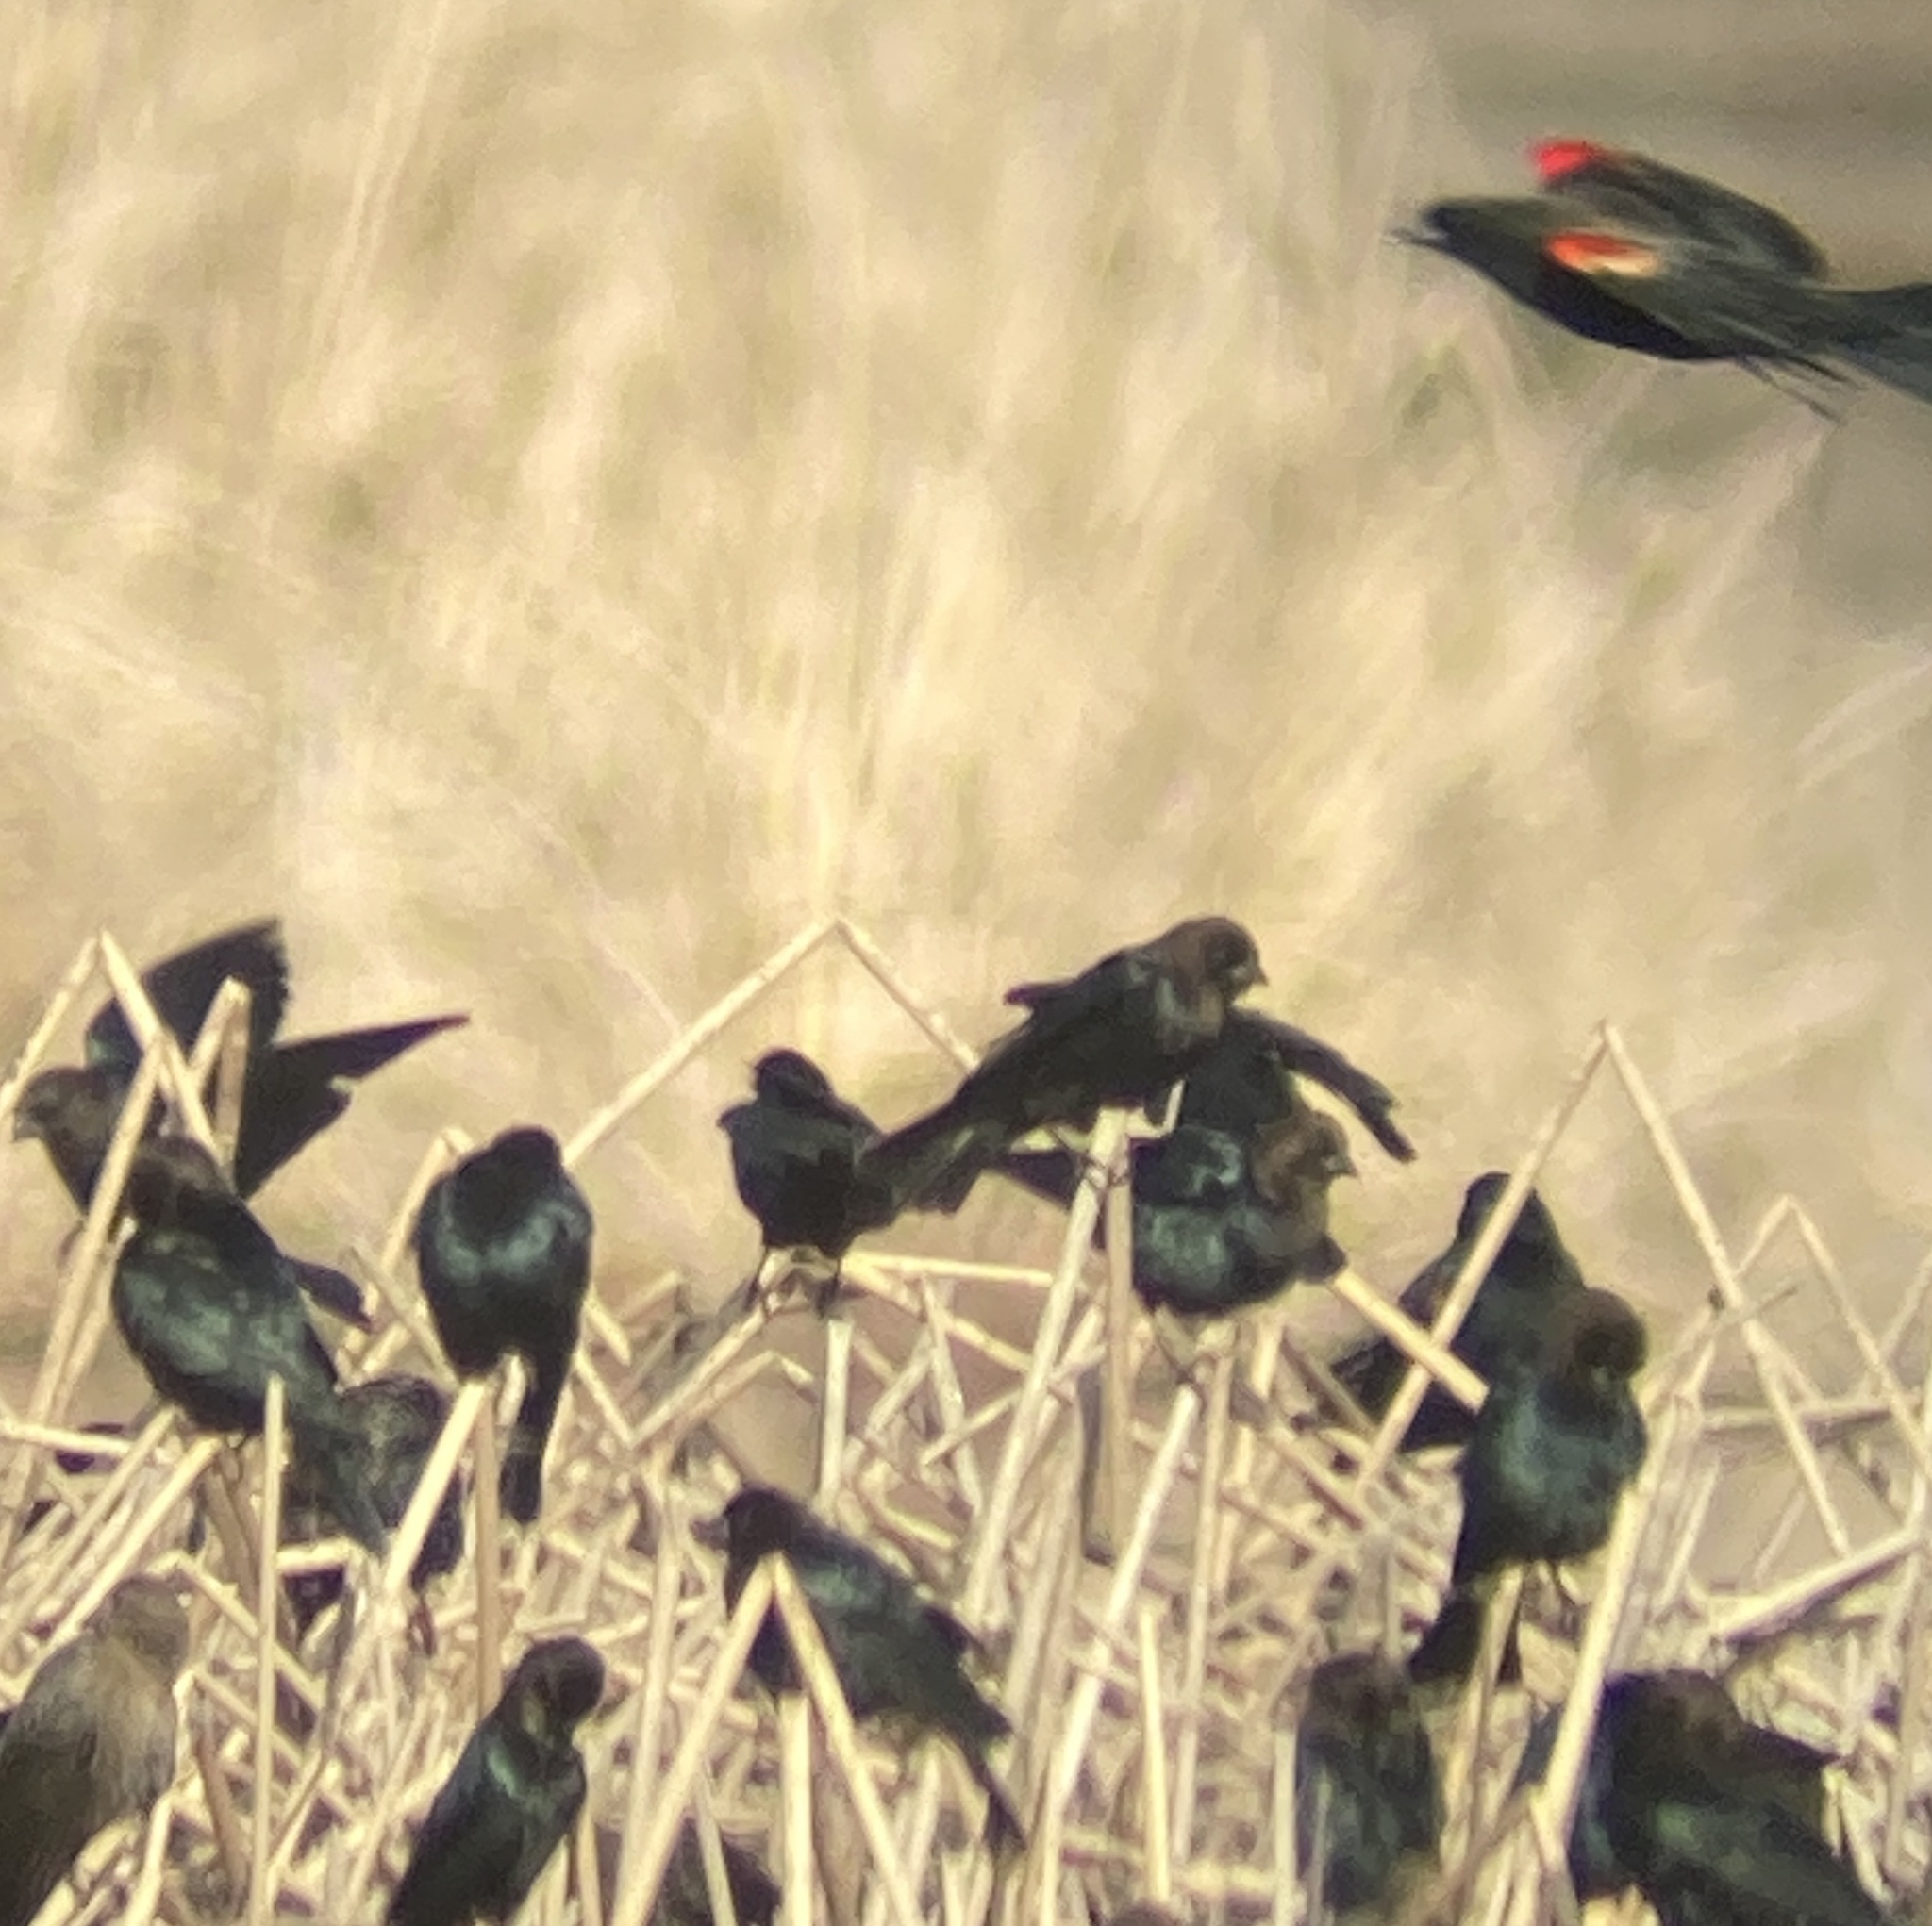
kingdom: Animalia
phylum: Chordata
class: Aves
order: Passeriformes
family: Icteridae
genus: Agelaius
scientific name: Agelaius phoeniceus
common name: Red-winged blackbird
